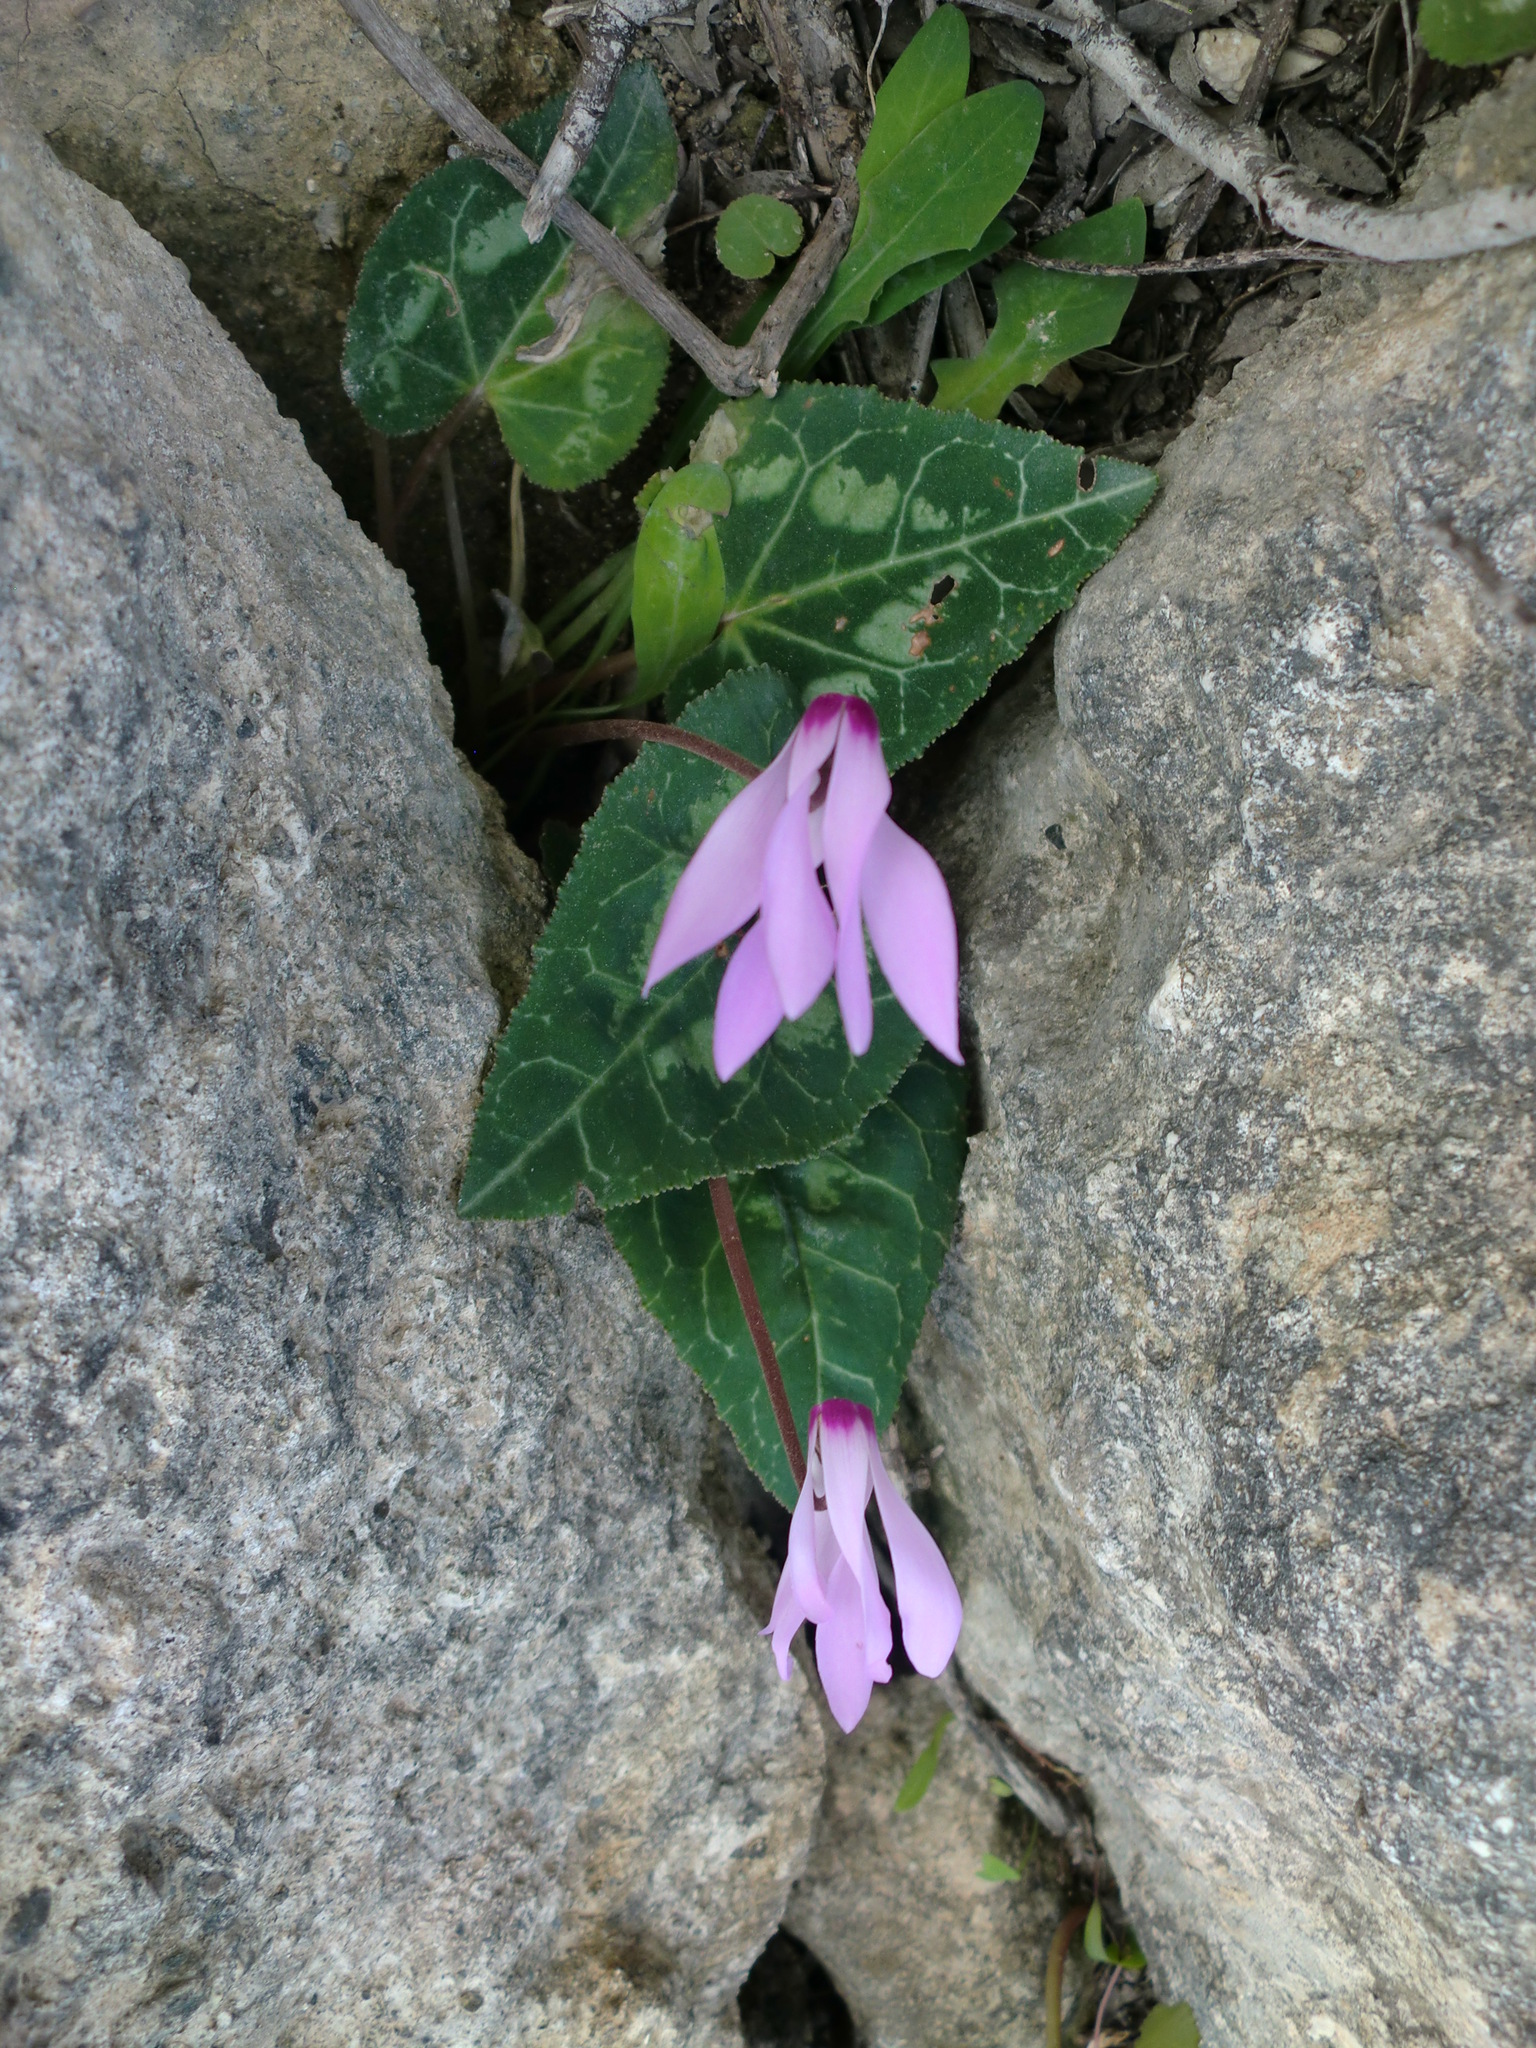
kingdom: Plantae
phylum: Tracheophyta
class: Magnoliopsida
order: Ericales
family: Primulaceae
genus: Cyclamen
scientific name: Cyclamen persicum
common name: Florist's cyclamen
